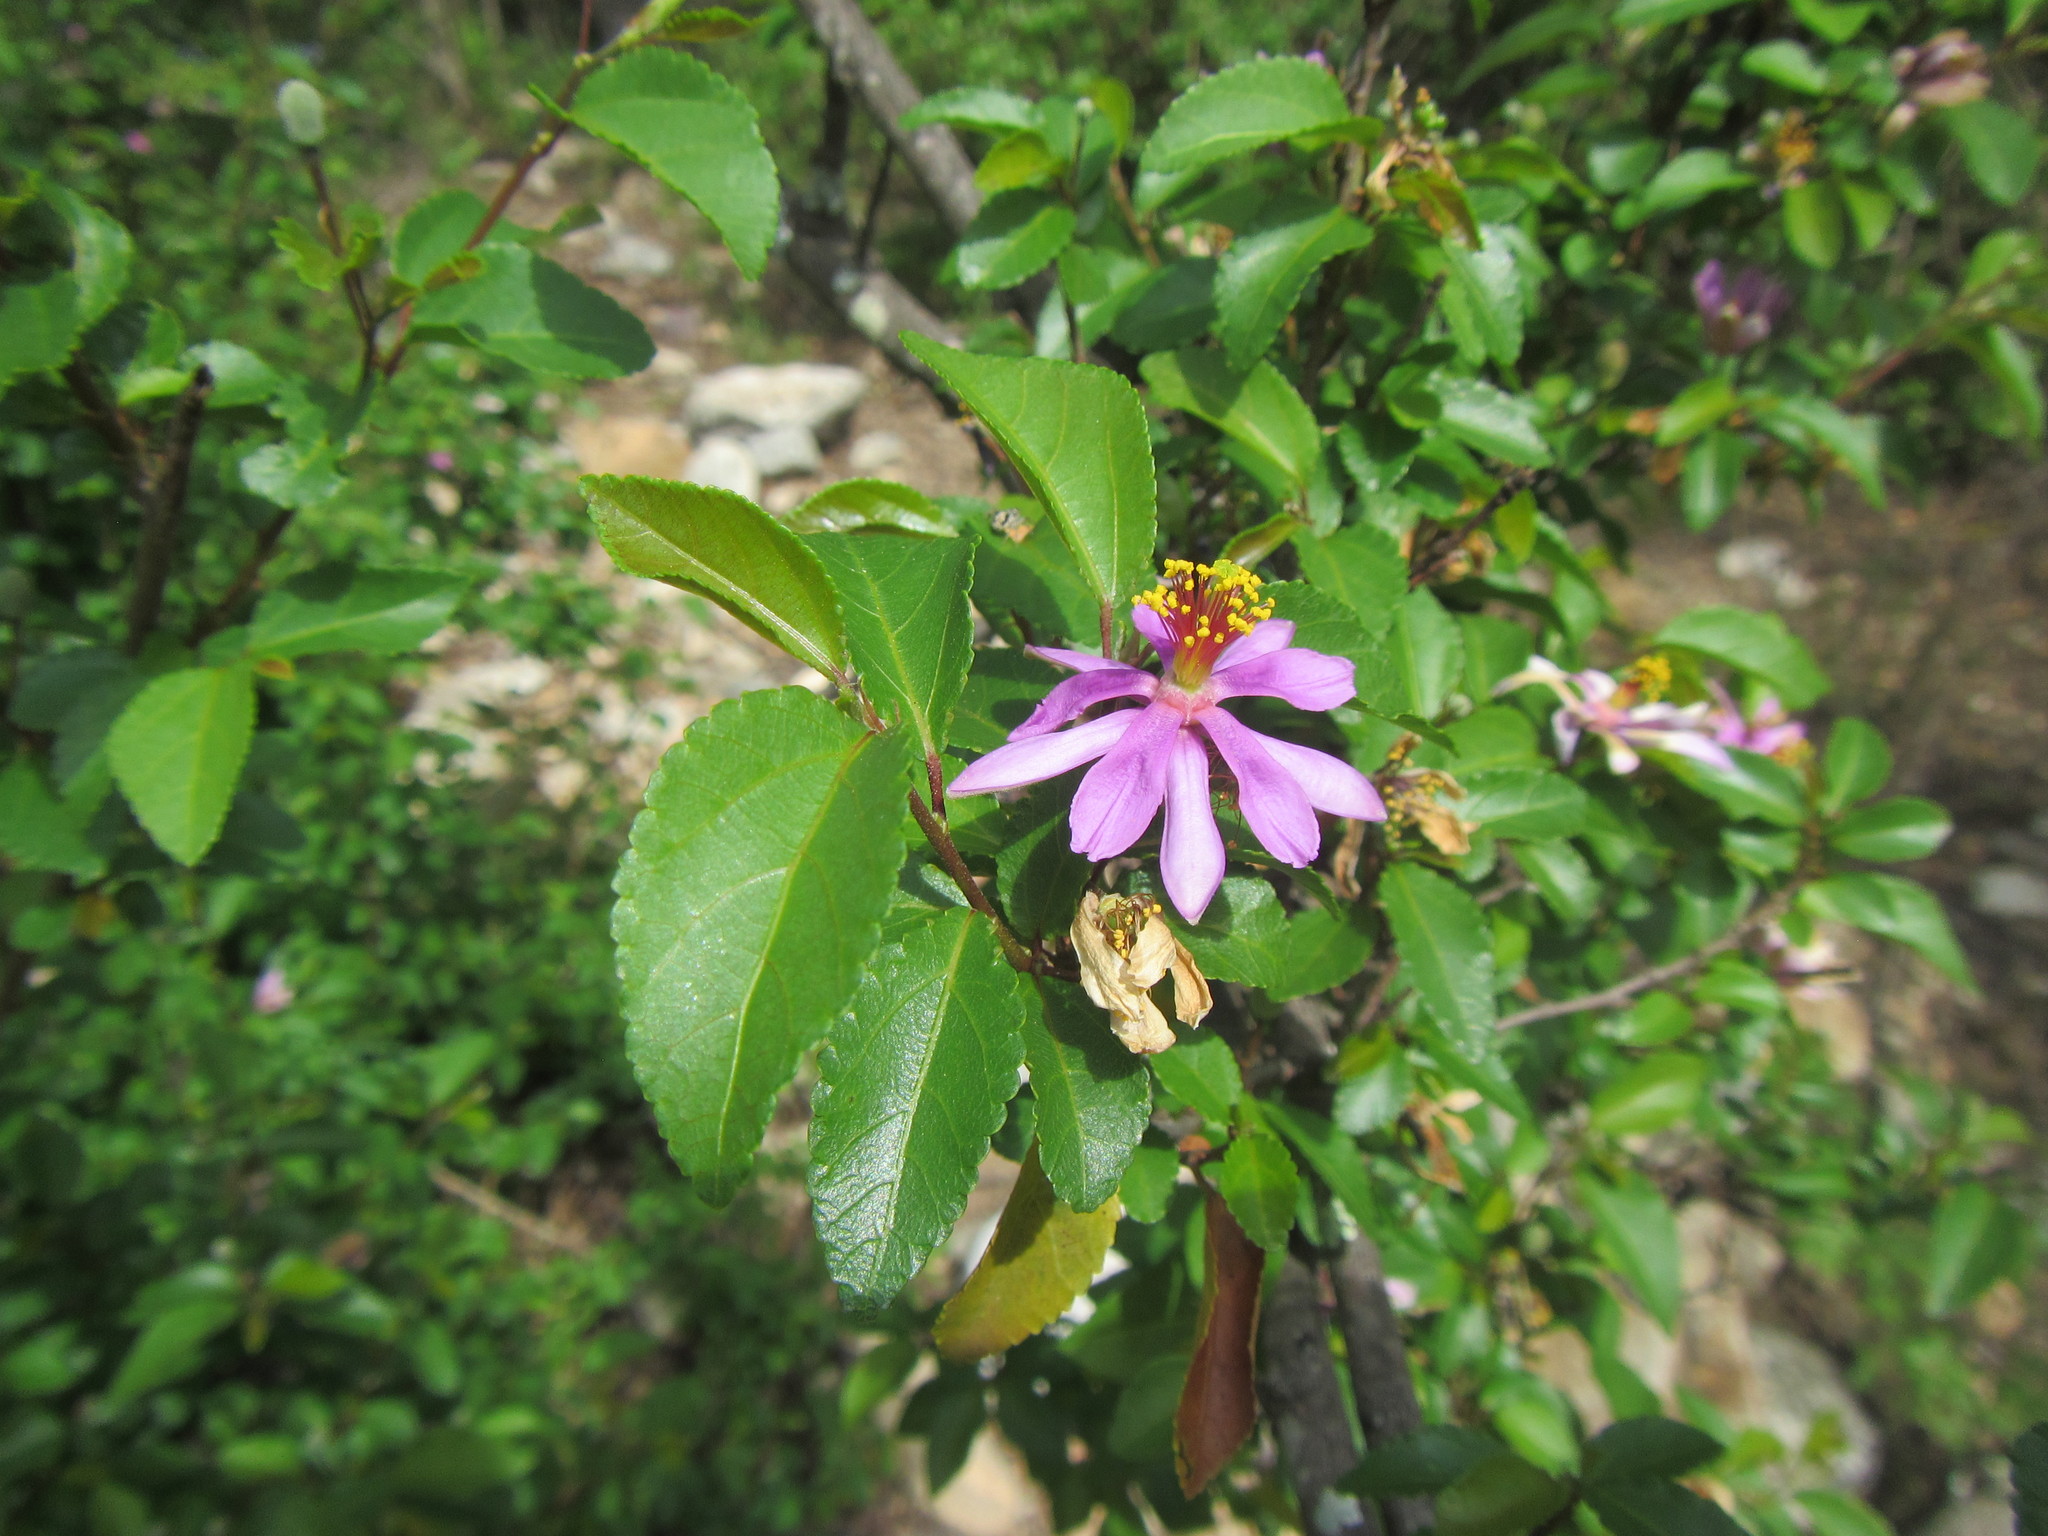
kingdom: Plantae
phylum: Tracheophyta
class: Magnoliopsida
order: Malvales
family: Malvaceae
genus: Grewia
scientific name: Grewia occidentalis
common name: Crossberry
